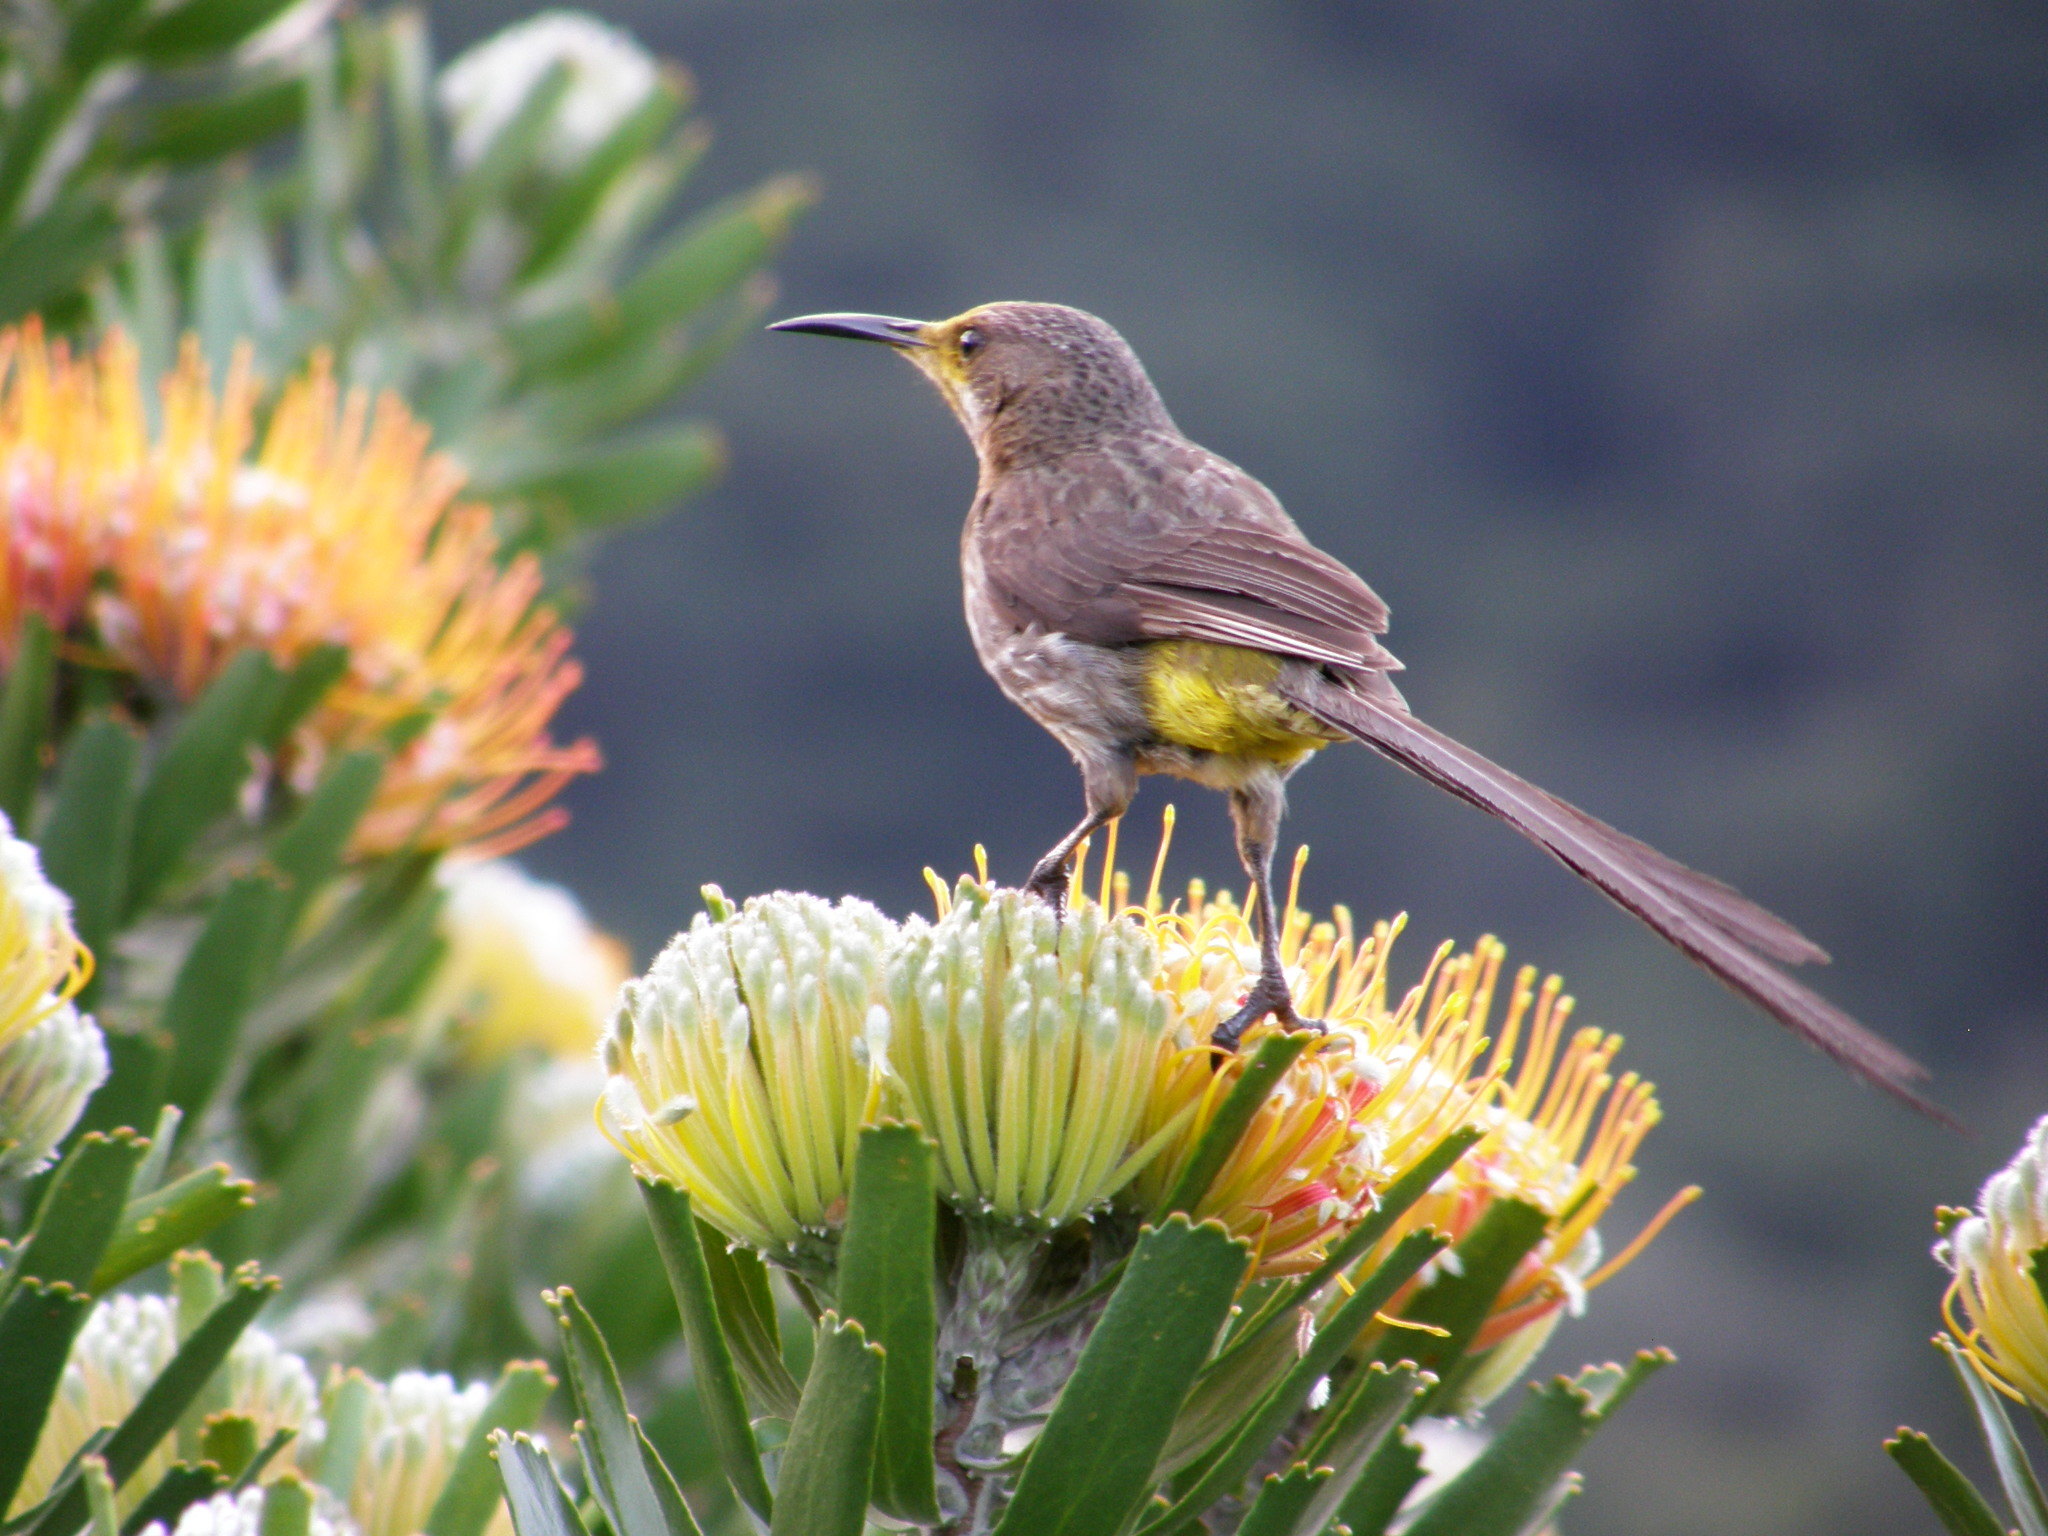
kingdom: Animalia
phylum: Chordata
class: Aves
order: Passeriformes
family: Promeropidae
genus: Promerops
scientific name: Promerops cafer
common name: Cape sugarbird
